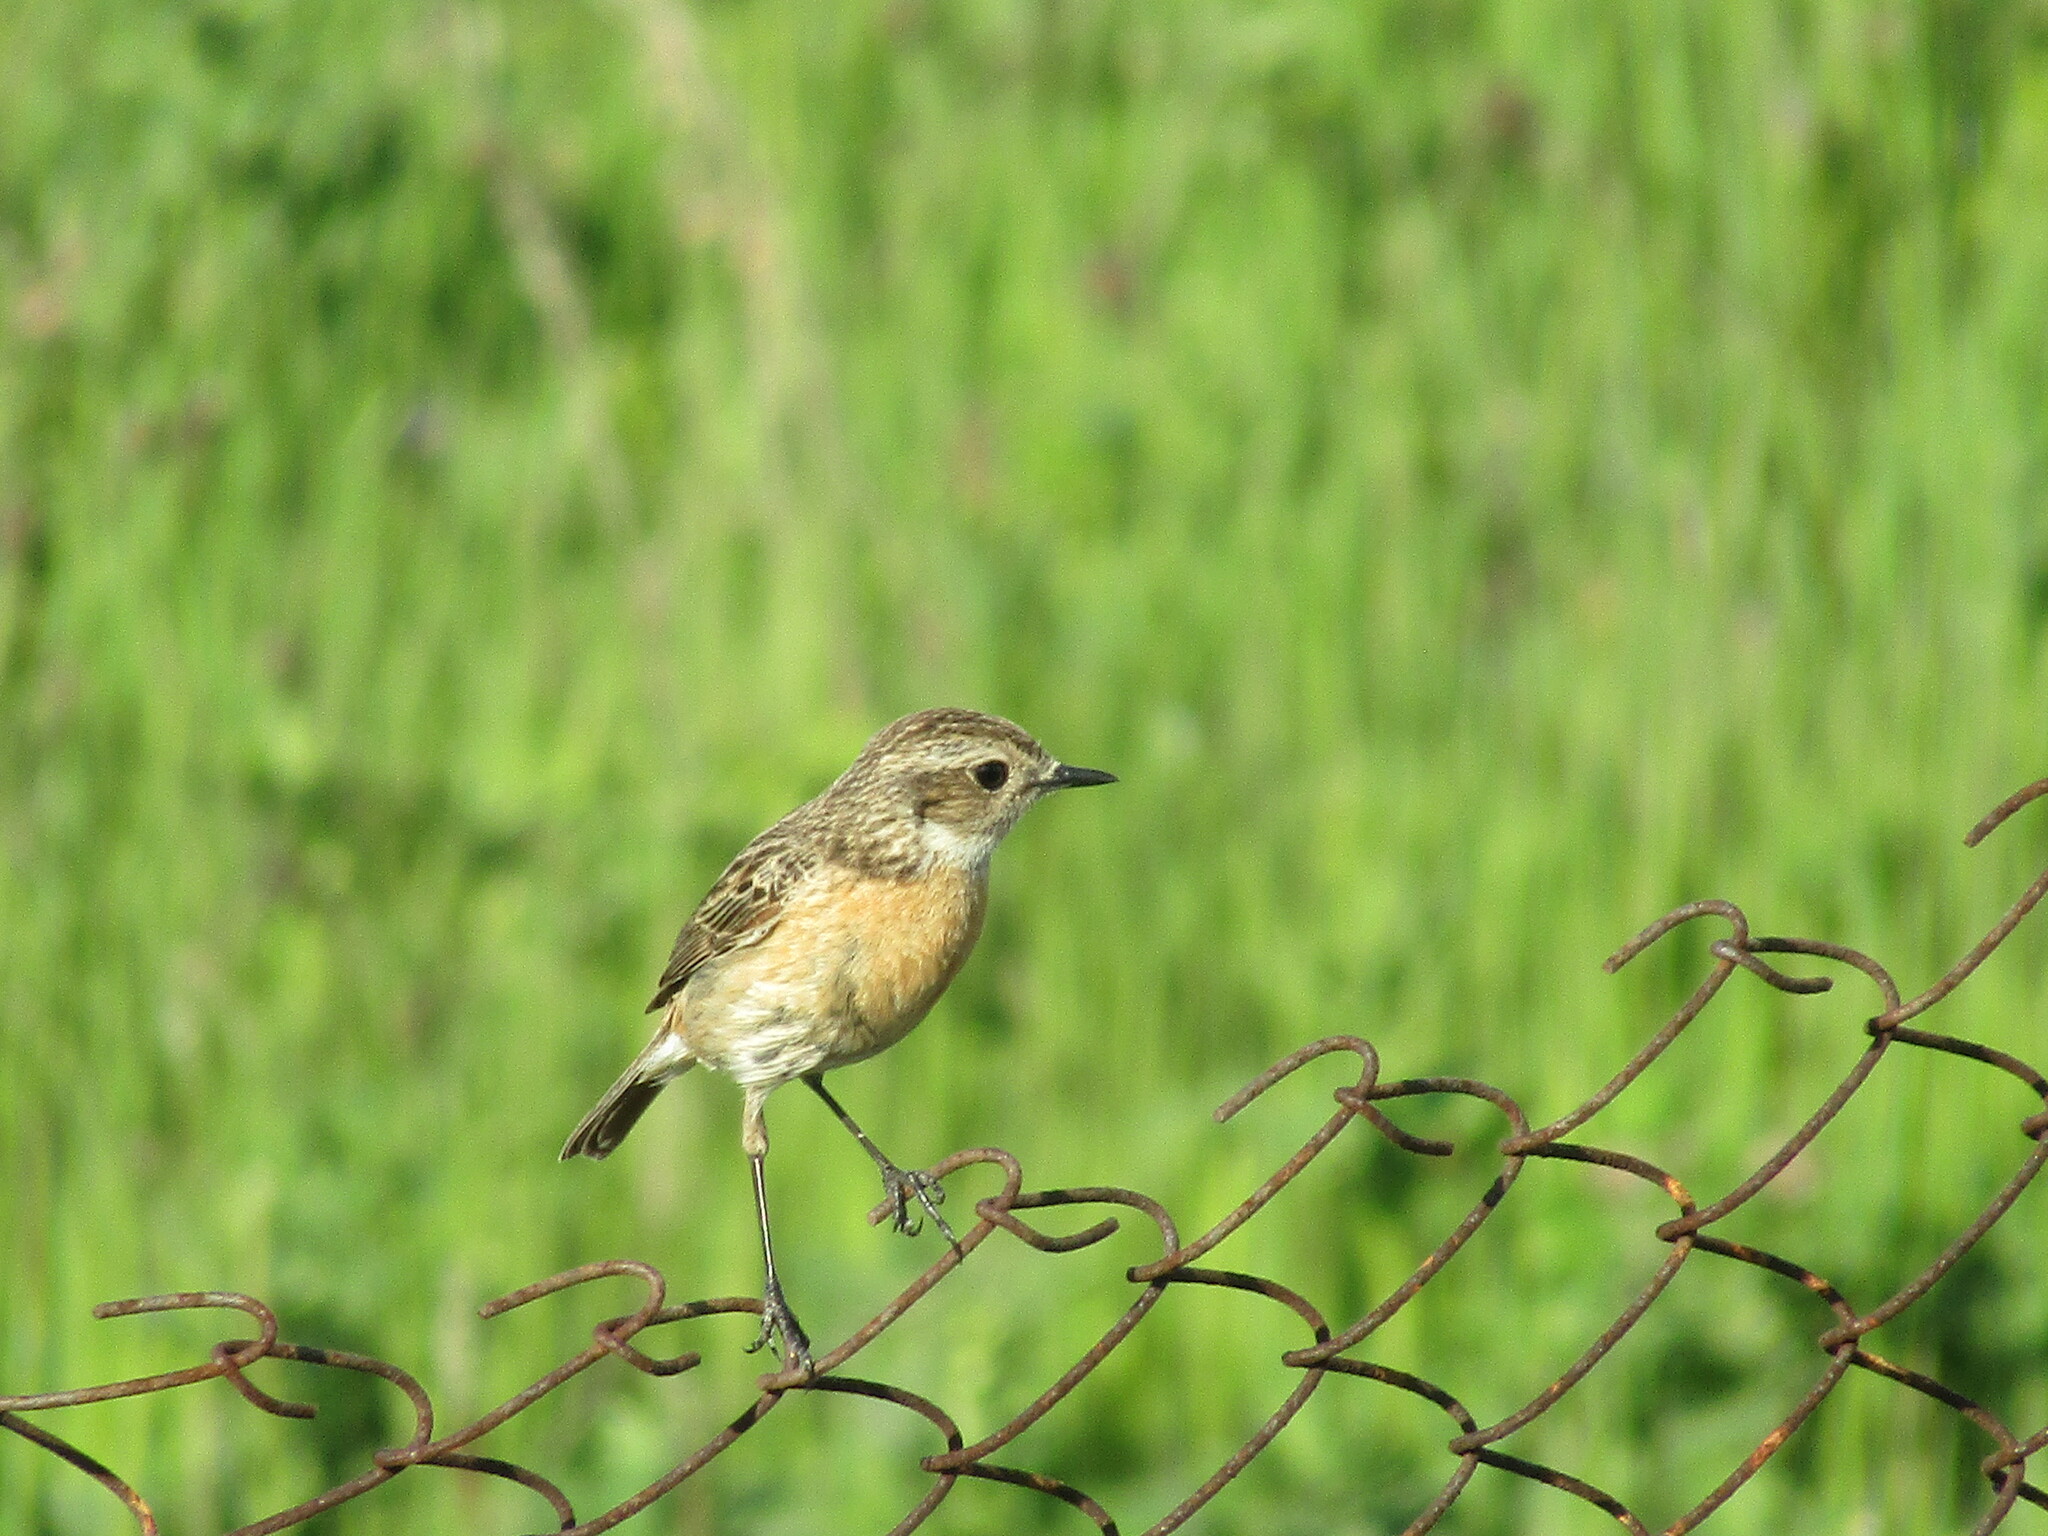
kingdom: Animalia
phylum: Chordata
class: Aves
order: Passeriformes
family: Muscicapidae
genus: Saxicola
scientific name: Saxicola rubicola
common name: European stonechat
